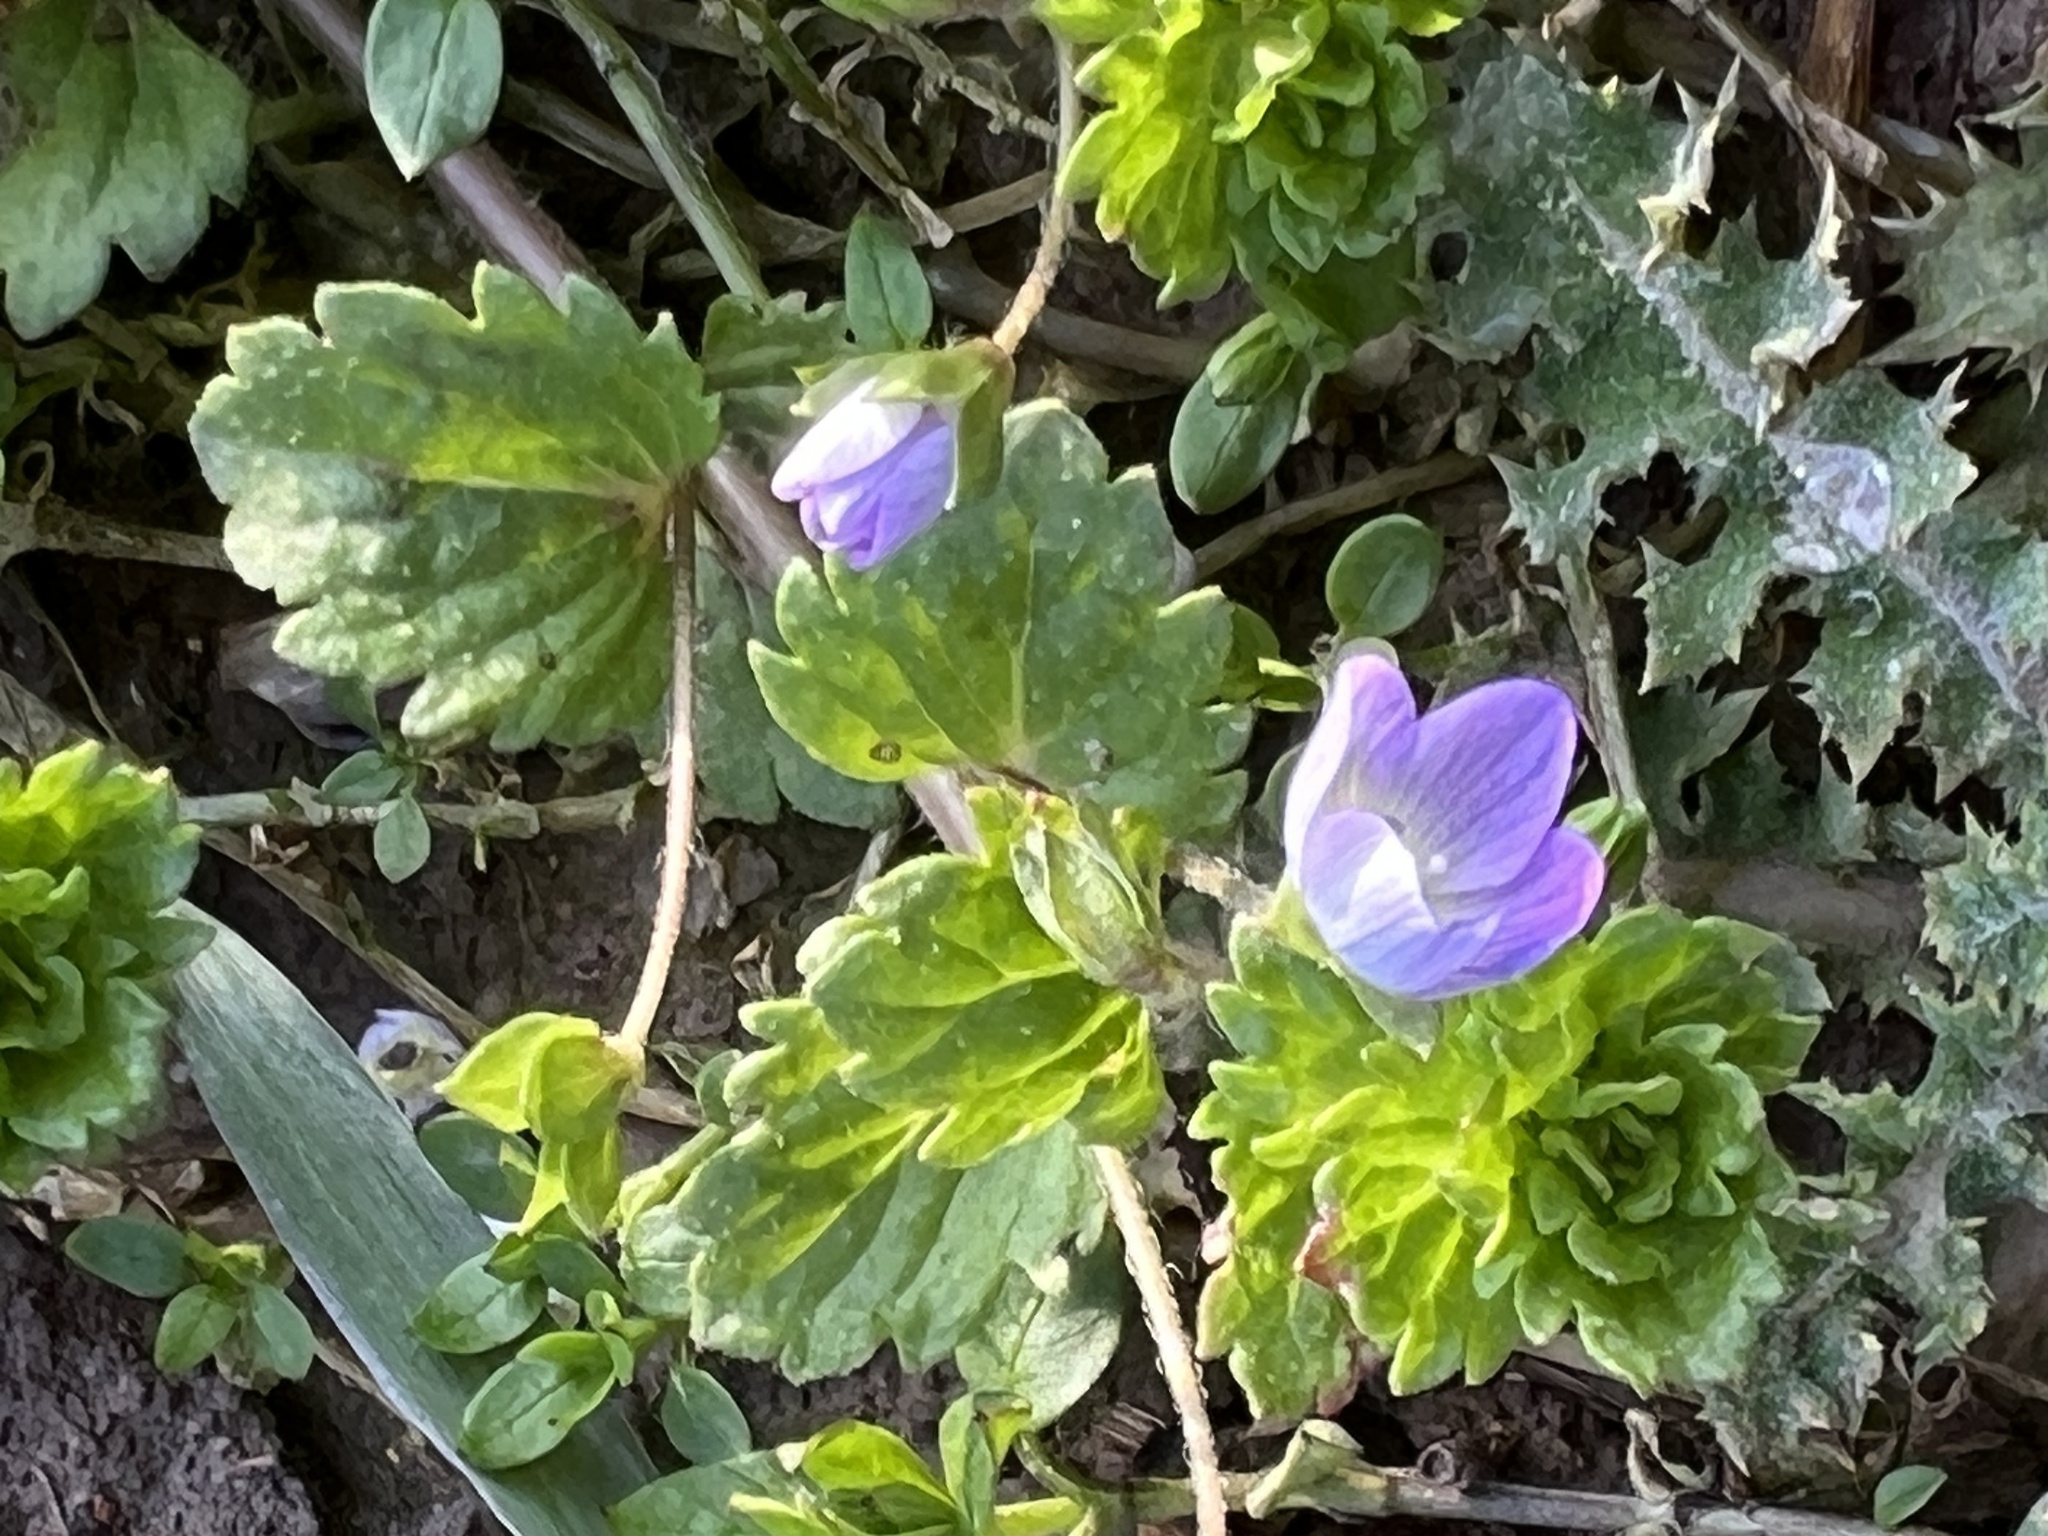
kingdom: Plantae
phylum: Tracheophyta
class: Magnoliopsida
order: Lamiales
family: Plantaginaceae
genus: Veronica
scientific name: Veronica persica
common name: Common field-speedwell
